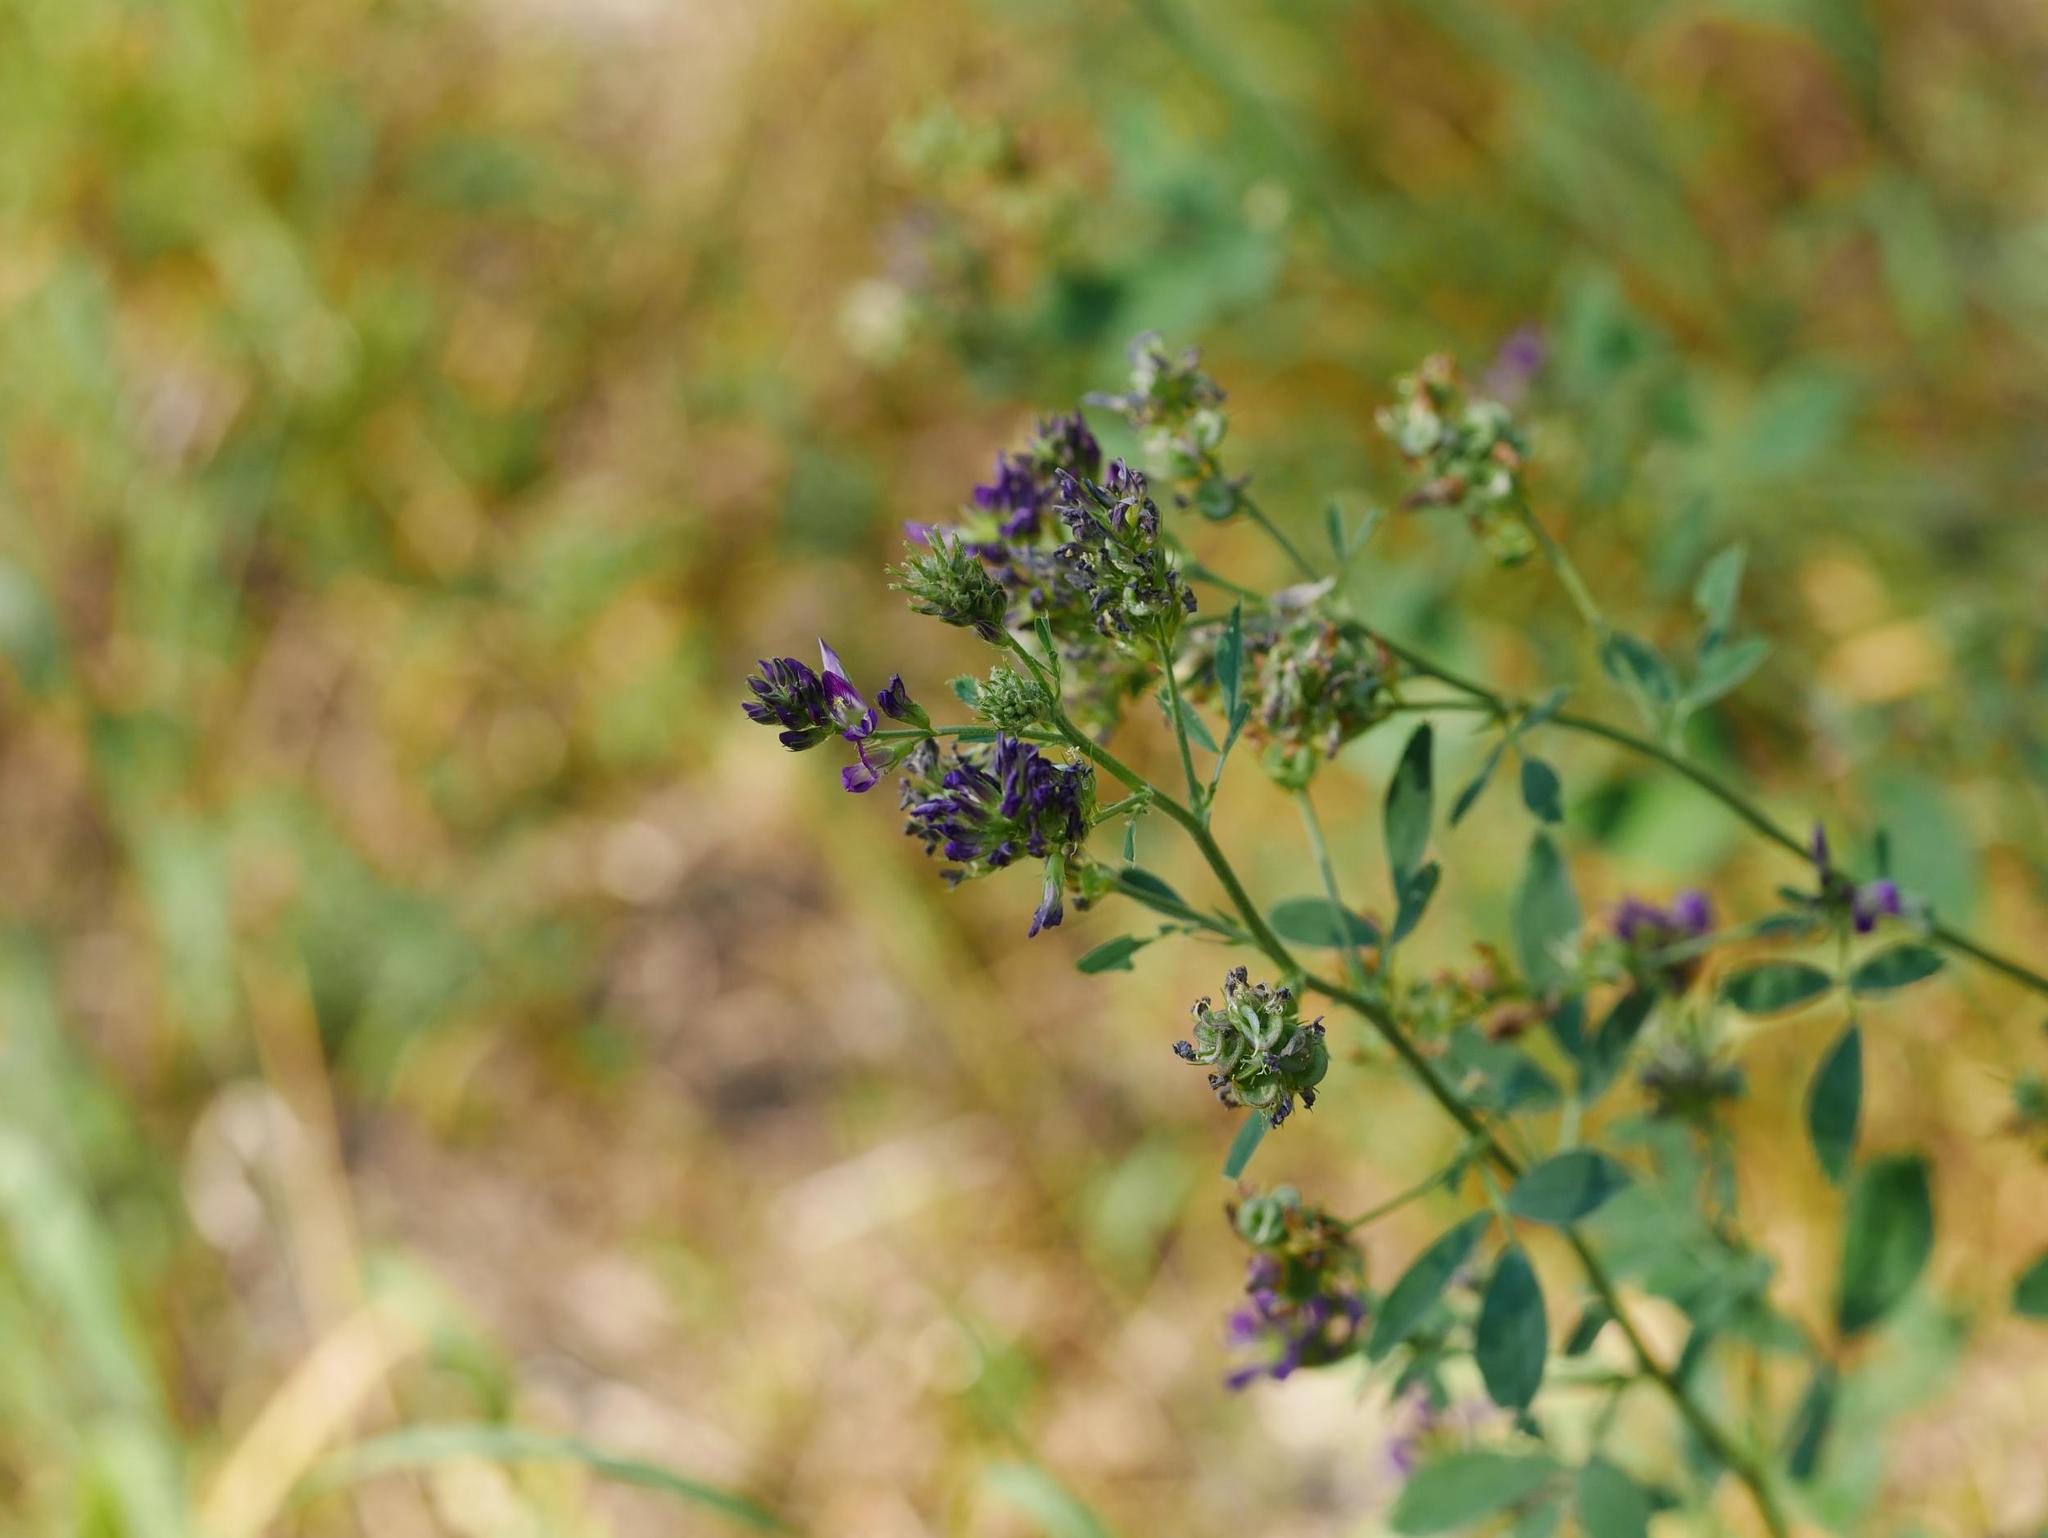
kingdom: Plantae
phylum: Tracheophyta
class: Magnoliopsida
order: Fabales
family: Fabaceae
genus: Medicago
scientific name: Medicago varia
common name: Sand lucerne
